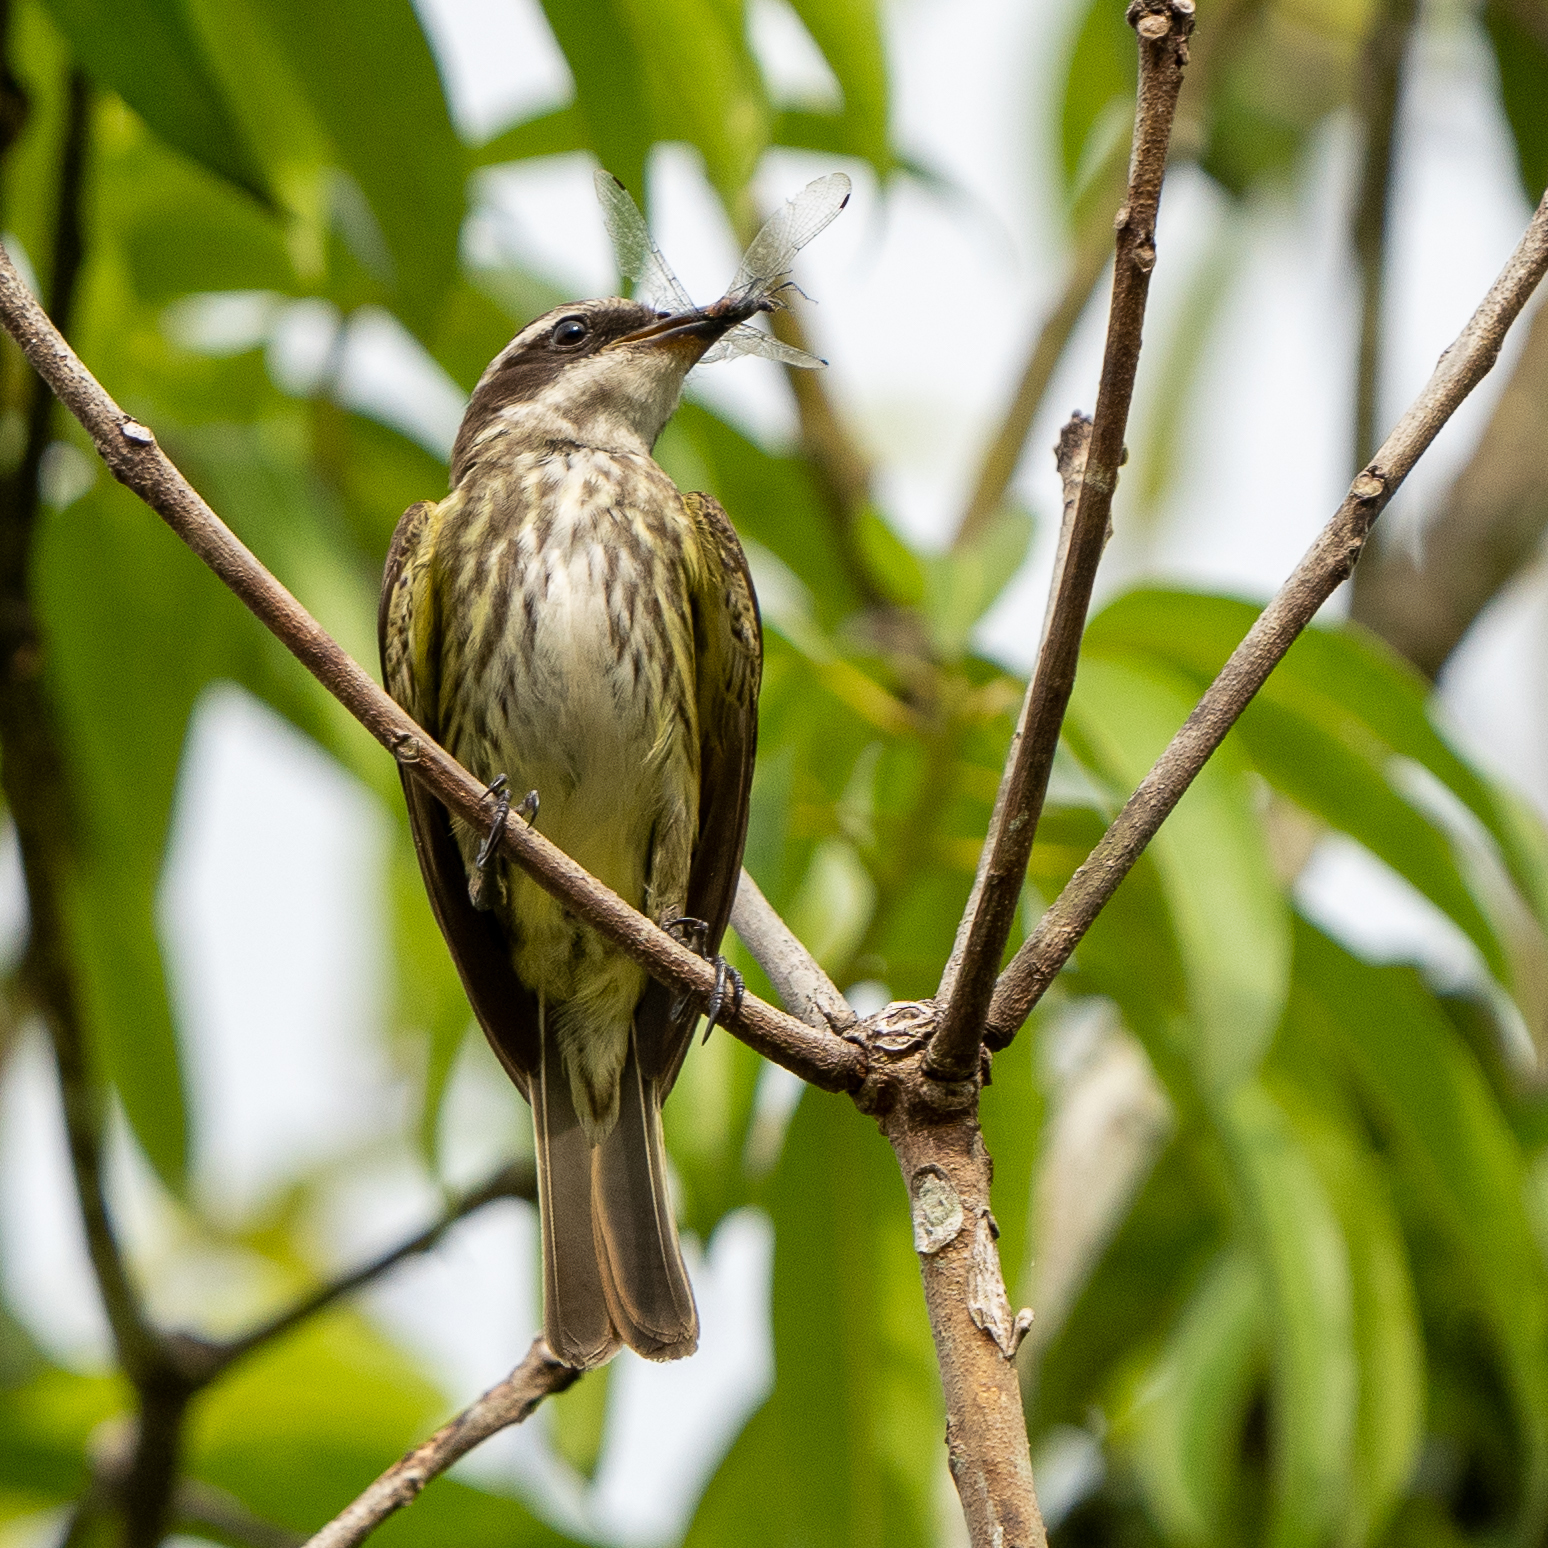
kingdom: Animalia
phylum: Chordata
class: Aves
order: Passeriformes
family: Tyrannidae
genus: Legatus
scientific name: Legatus leucophaius
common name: Piratic flycatcher
